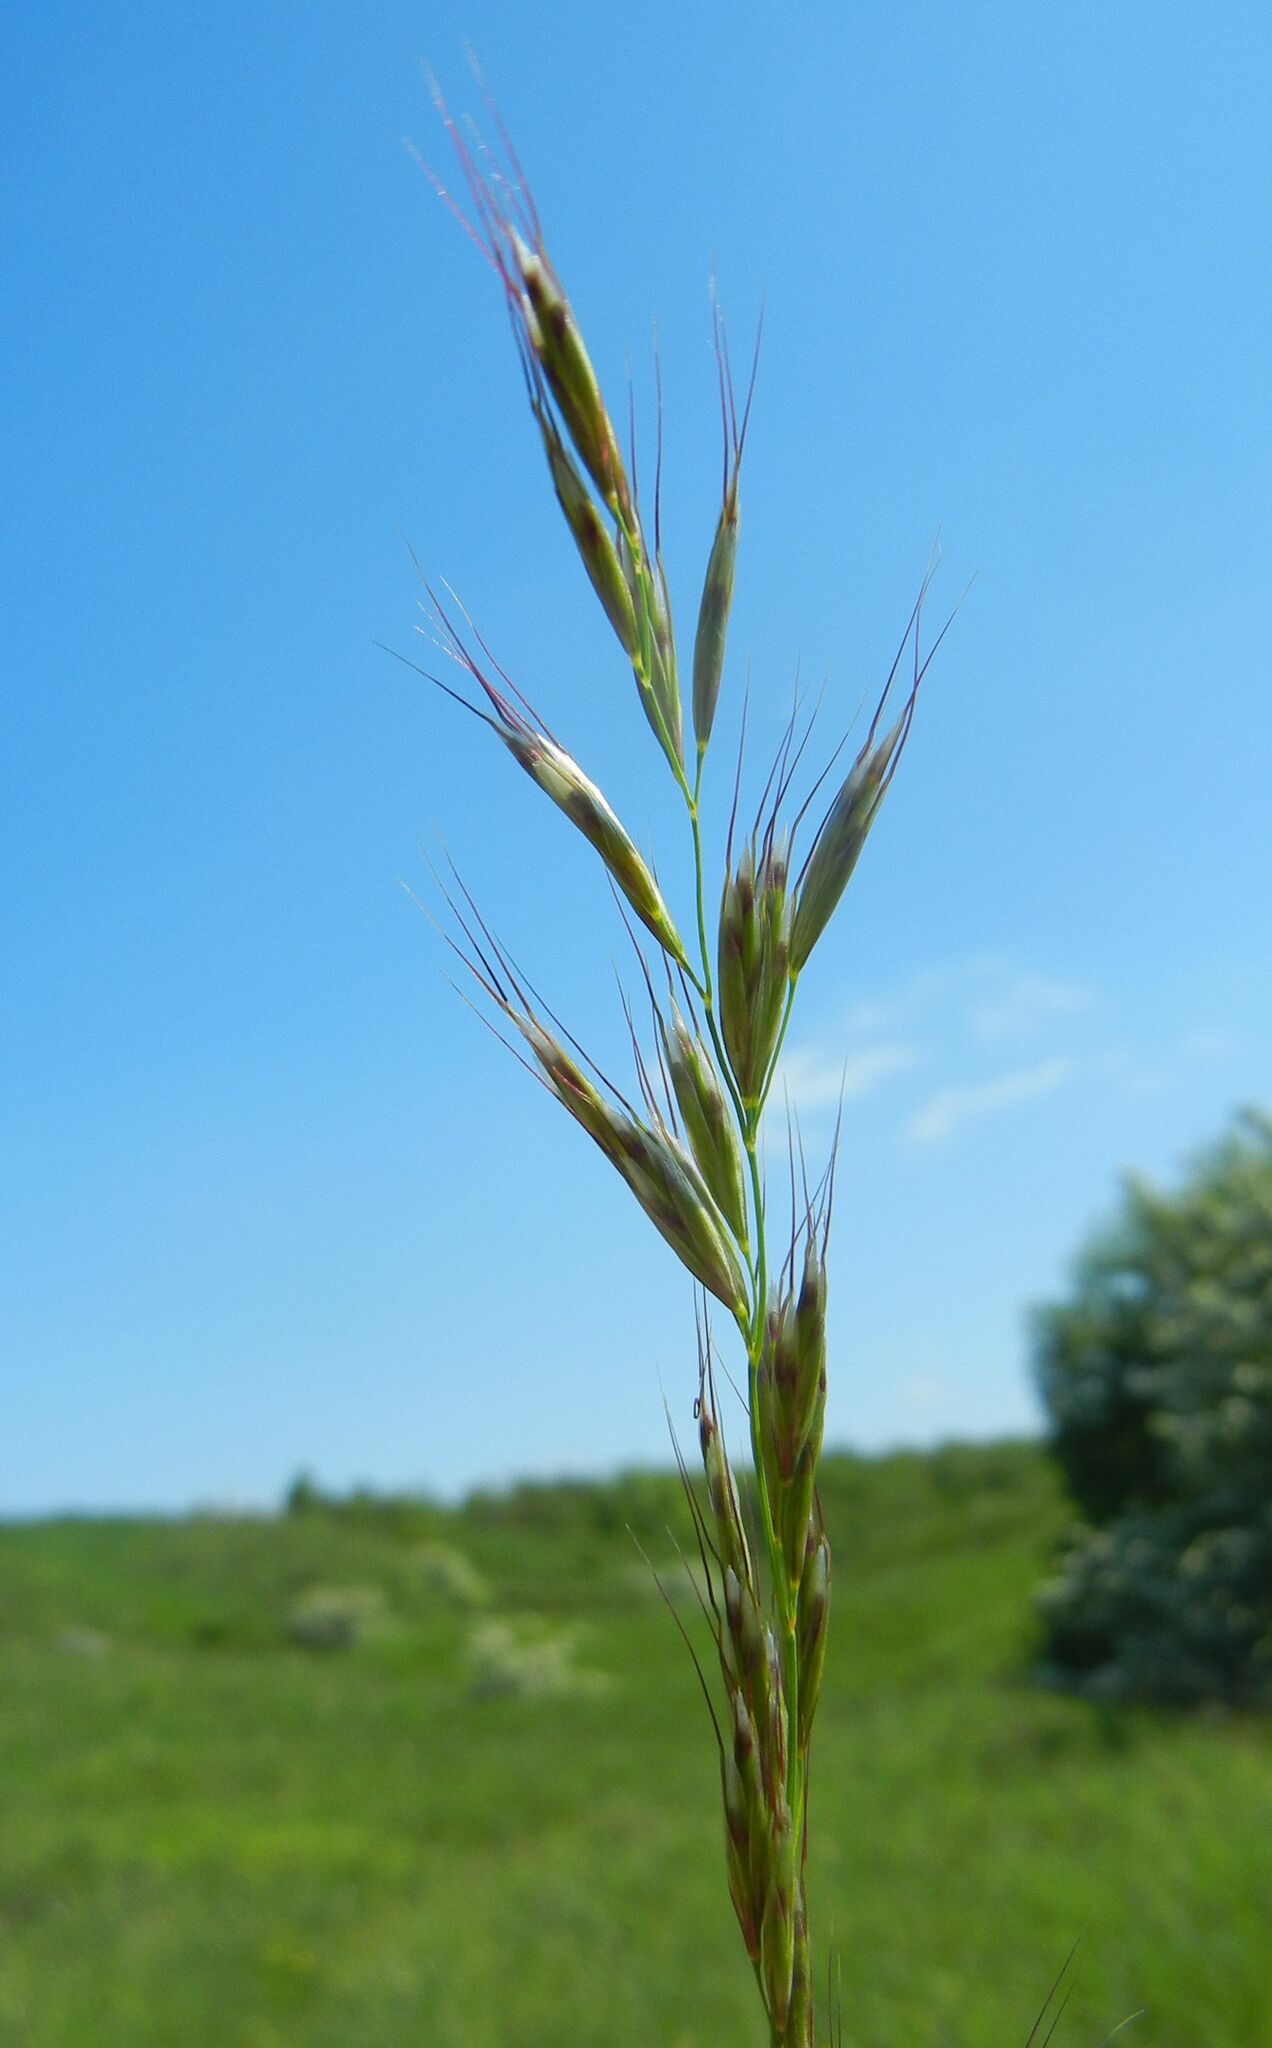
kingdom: Plantae
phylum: Tracheophyta
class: Liliopsida
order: Poales
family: Poaceae
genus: Helictochloa
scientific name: Helictochloa pratensis
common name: Meadow oat grass
